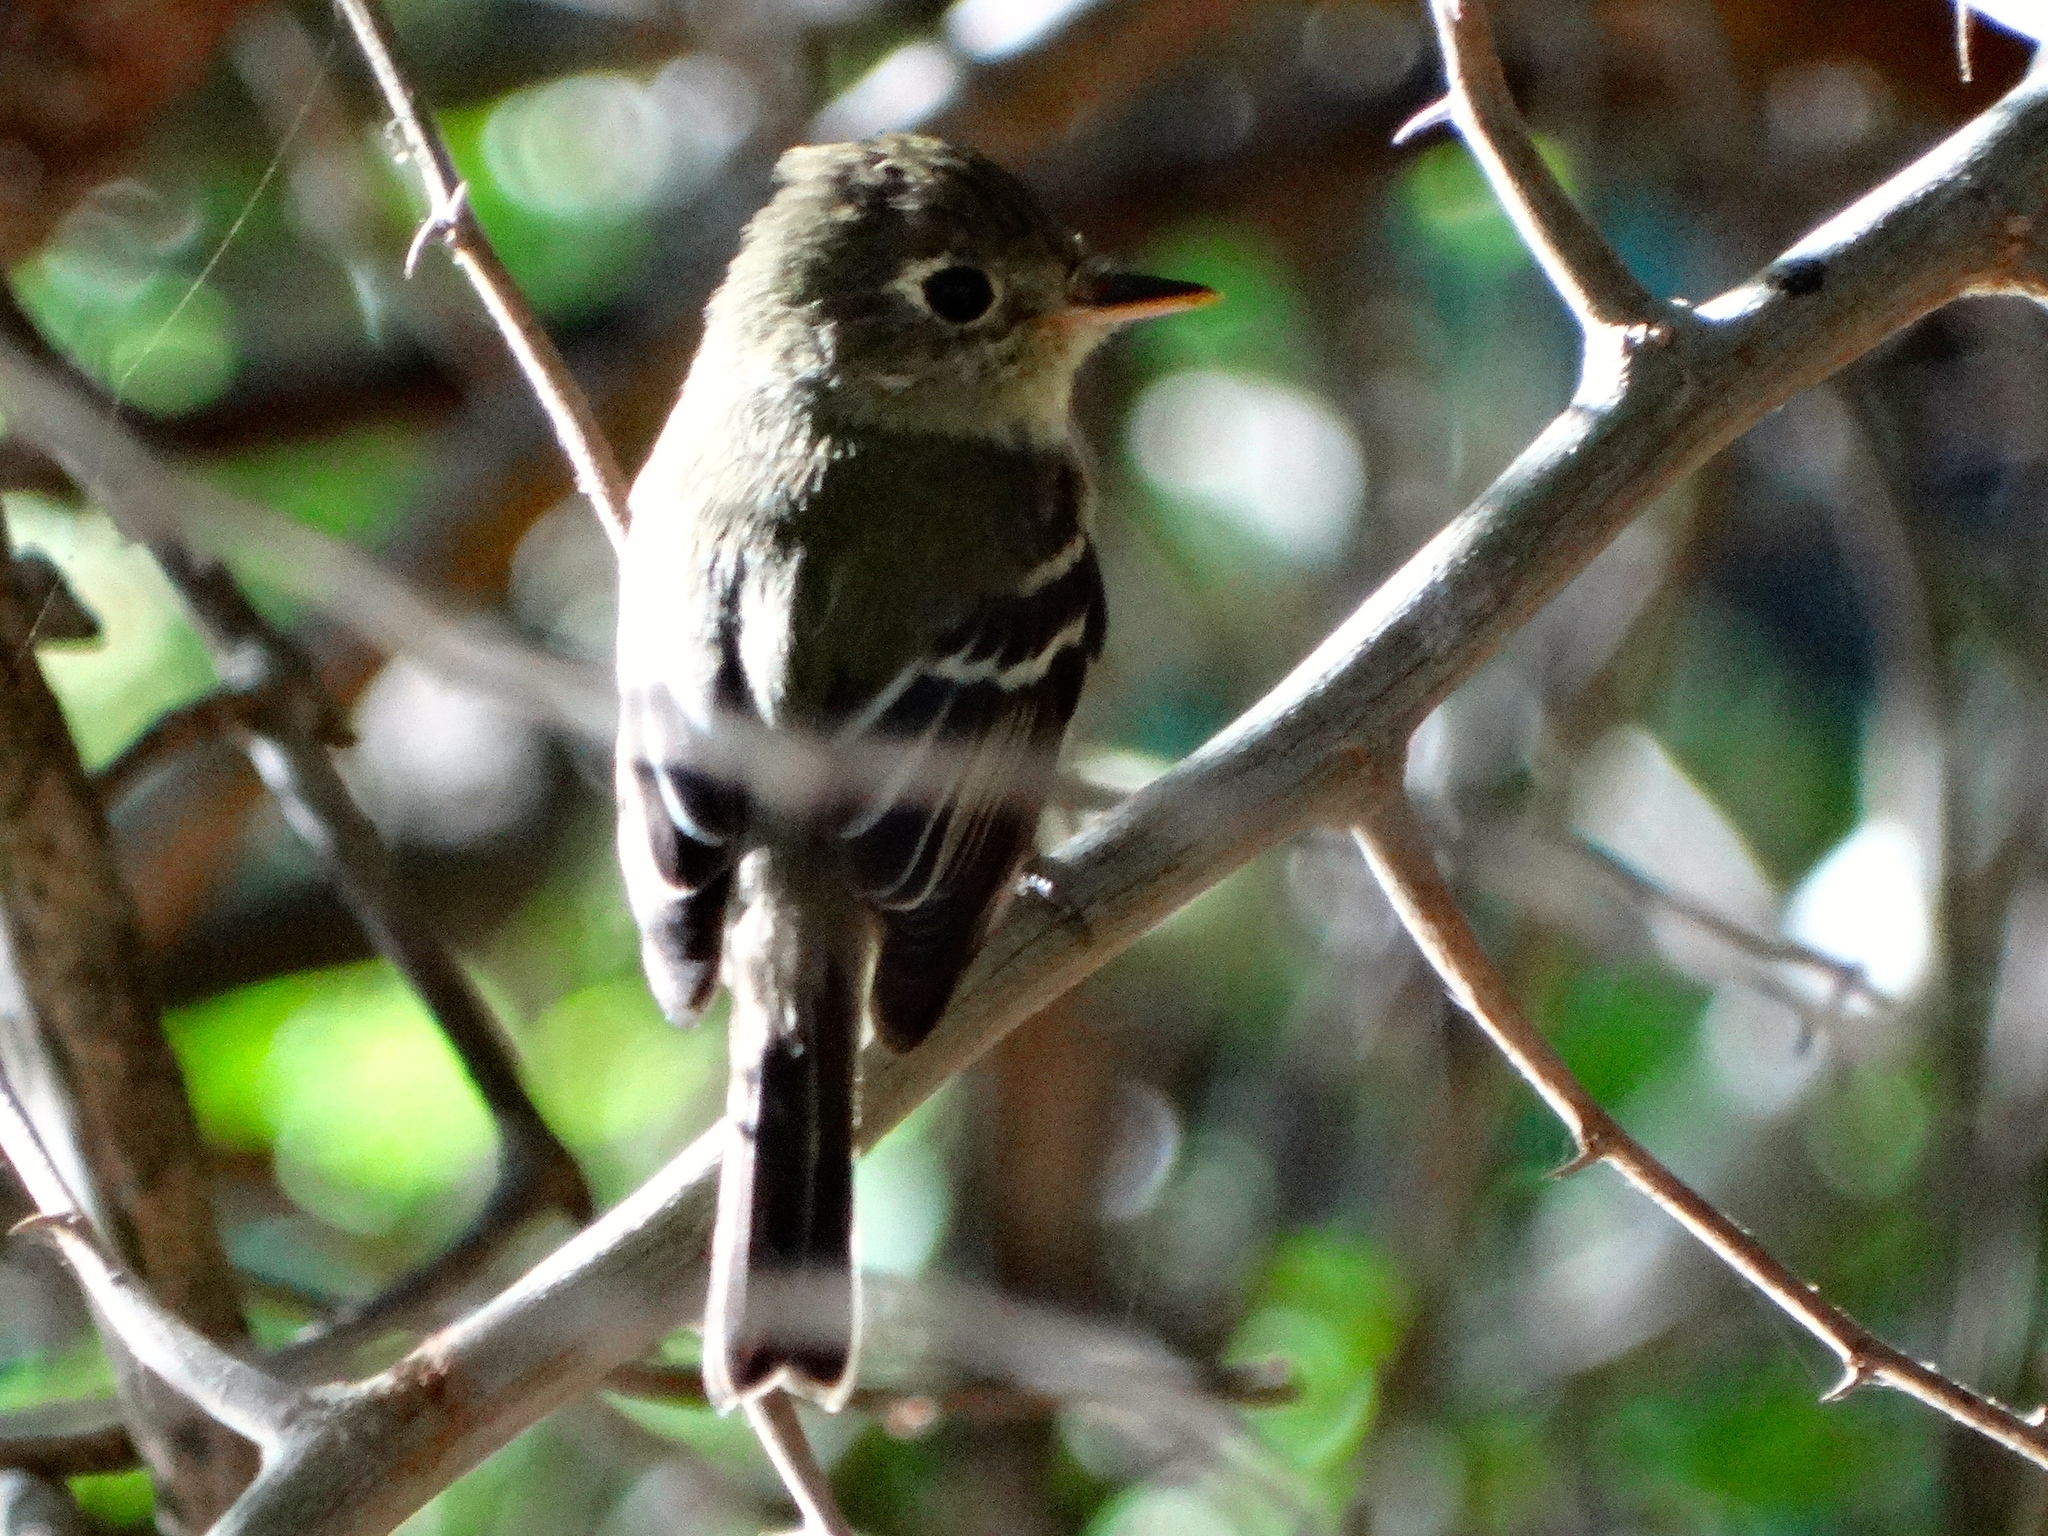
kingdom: Animalia
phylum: Chordata
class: Aves
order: Passeriformes
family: Tyrannidae
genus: Empidonax
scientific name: Empidonax
